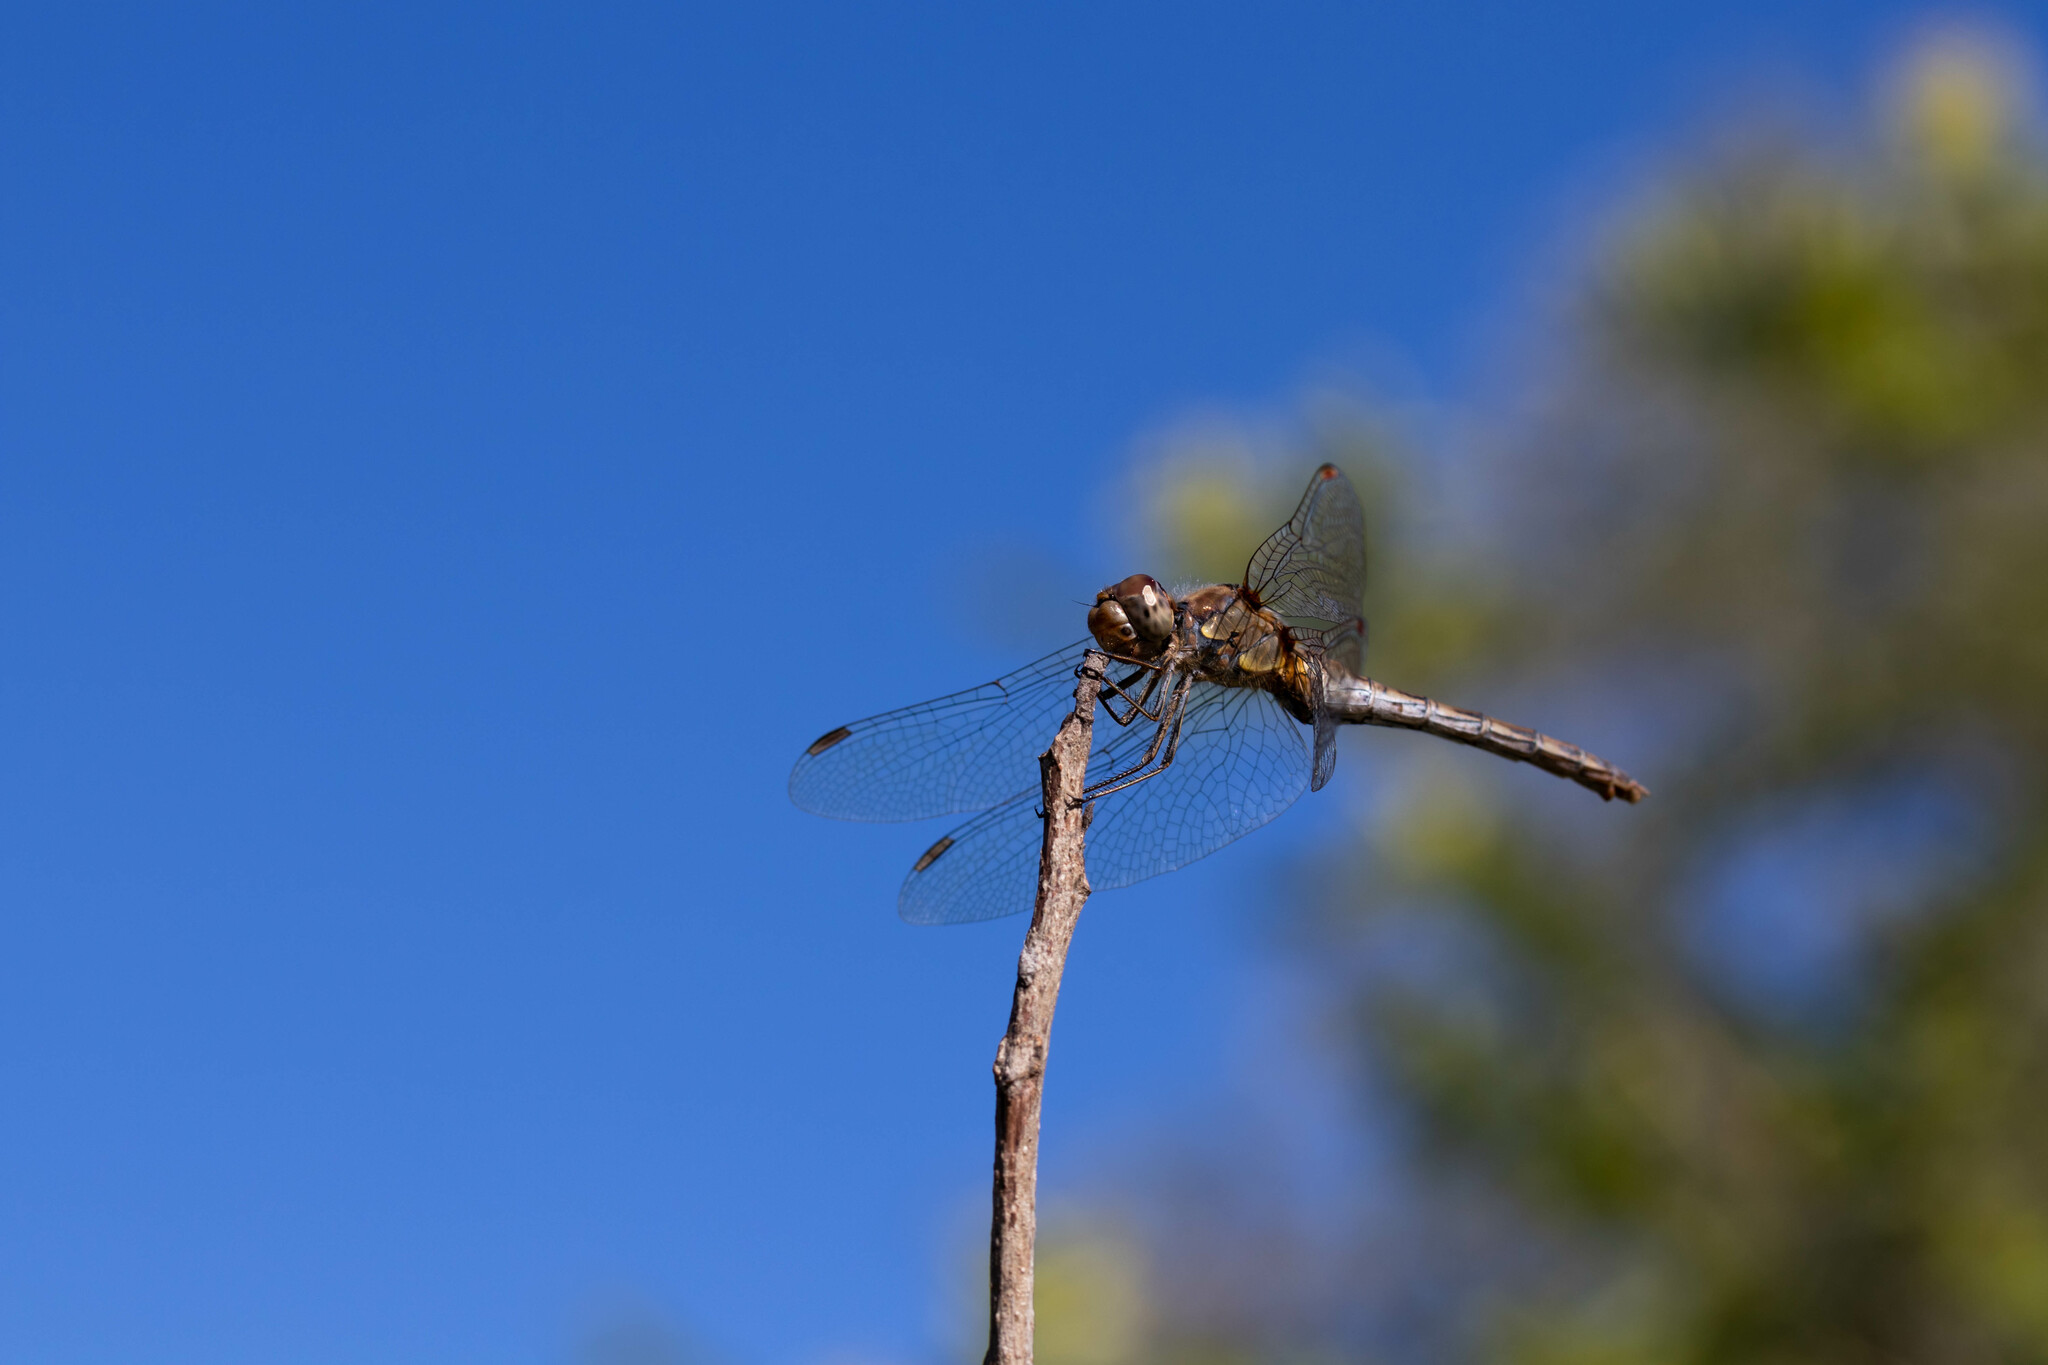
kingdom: Animalia
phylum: Arthropoda
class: Insecta
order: Odonata
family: Libellulidae
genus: Sympetrum
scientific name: Sympetrum striolatum
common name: Common darter
